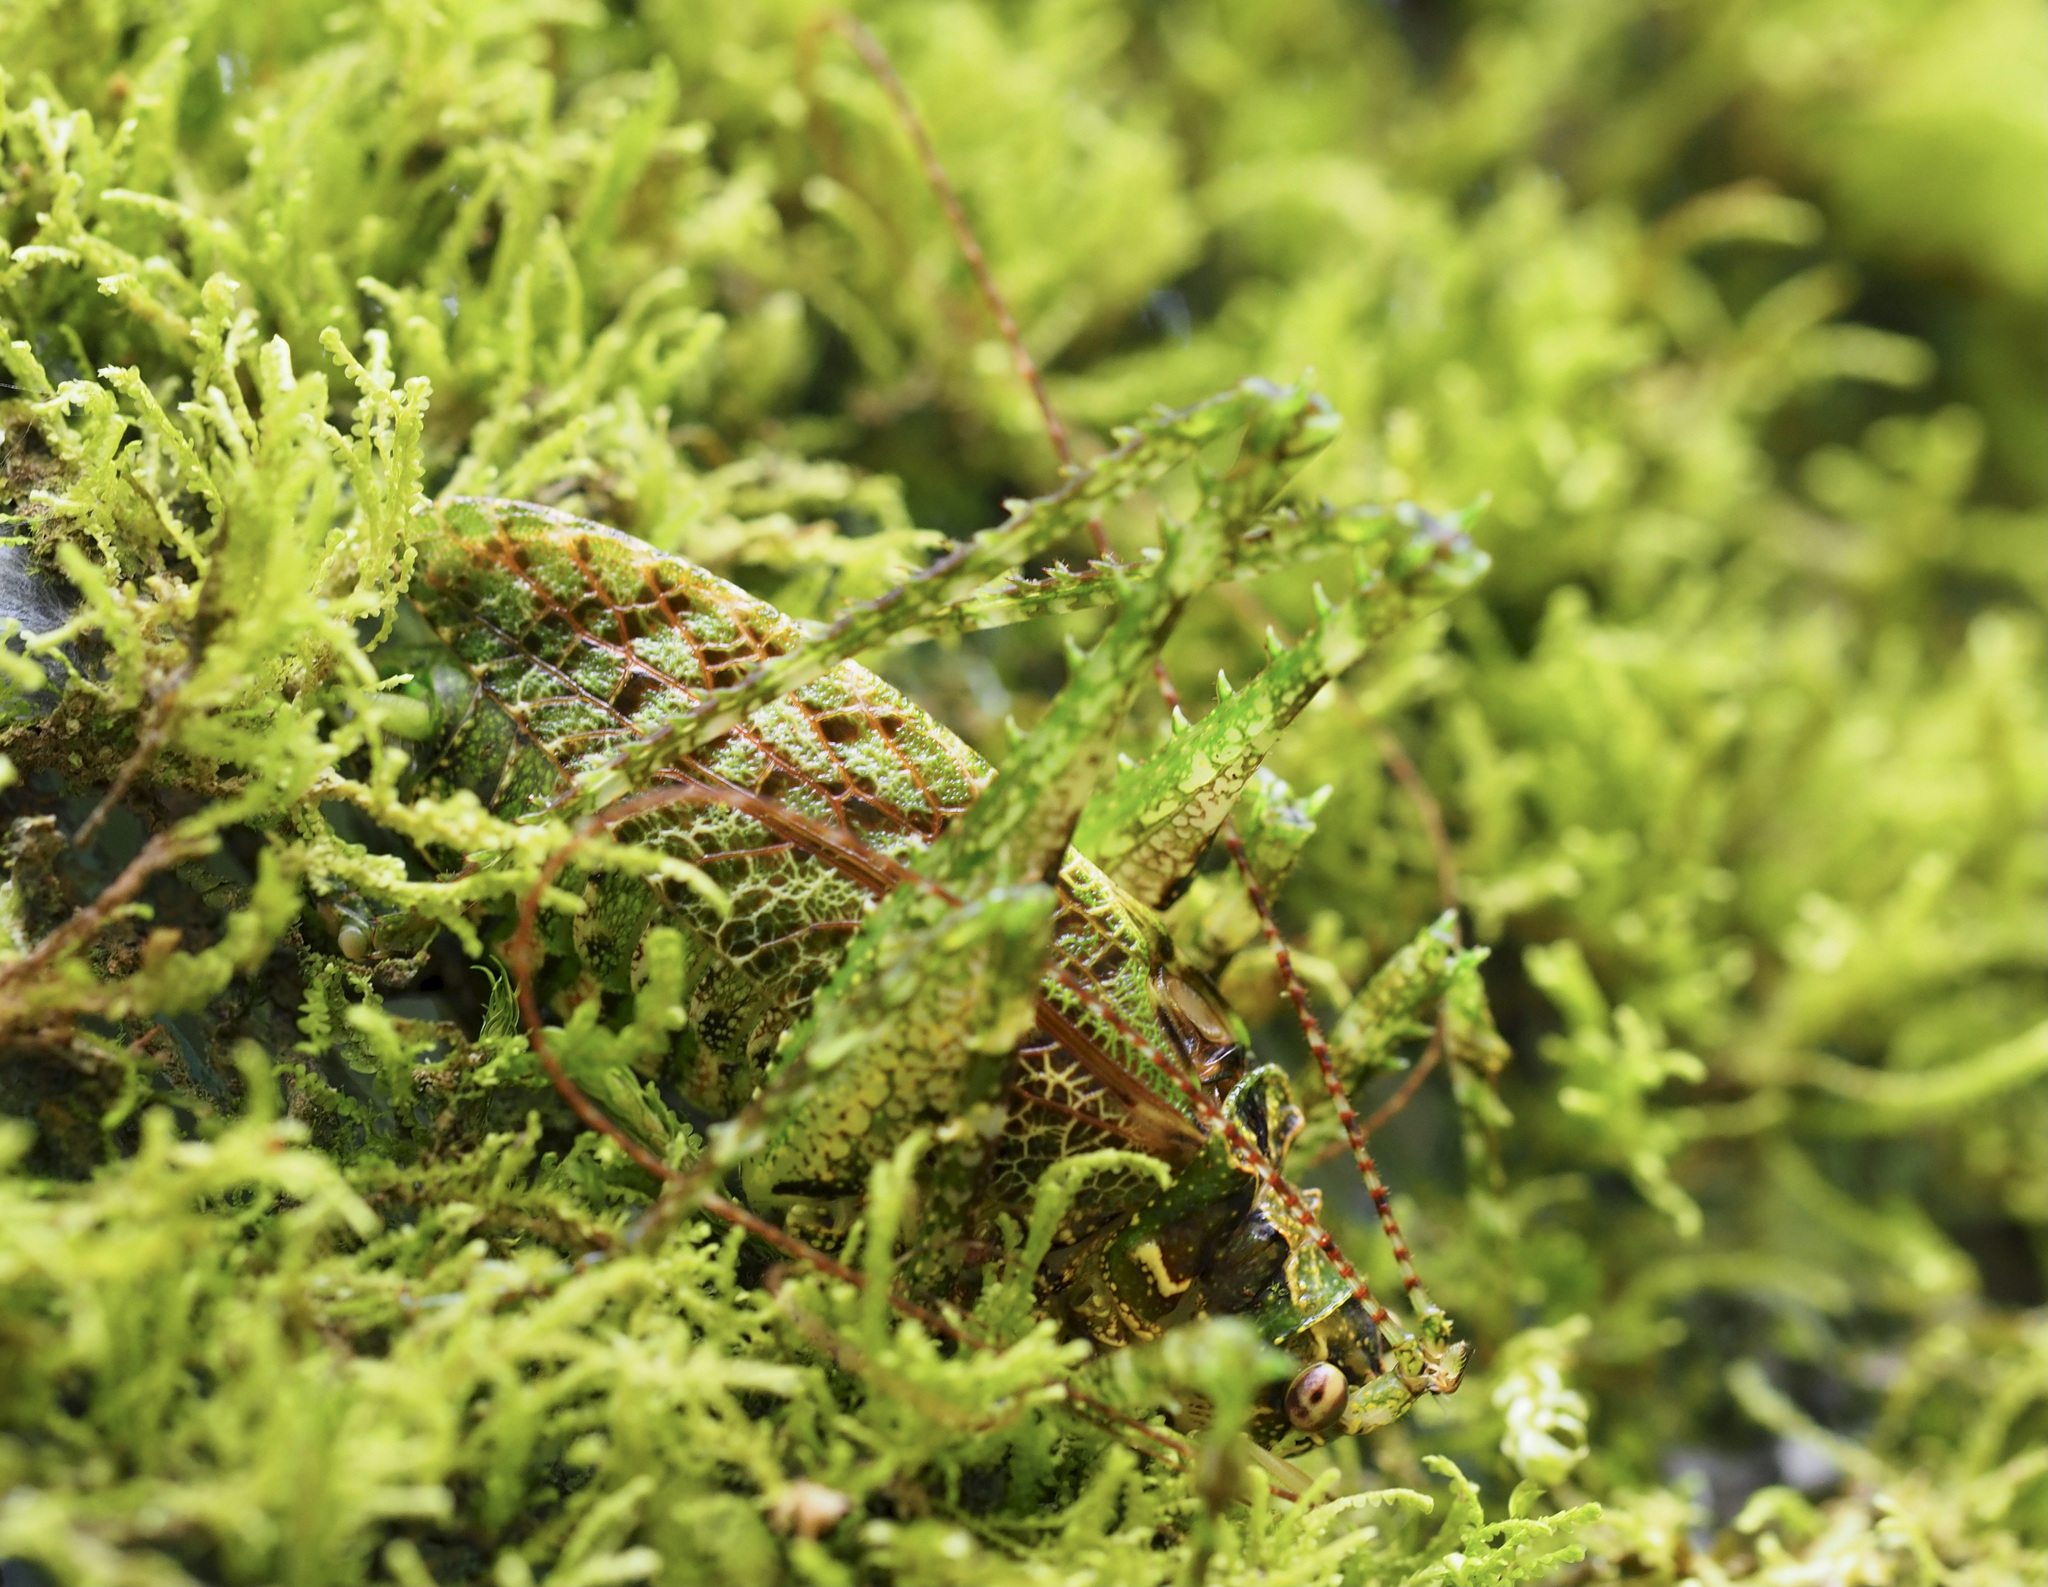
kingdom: Animalia
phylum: Arthropoda
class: Insecta
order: Orthoptera
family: Tettigoniidae
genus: Clepsydronotus
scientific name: Clepsydronotus deciduus
